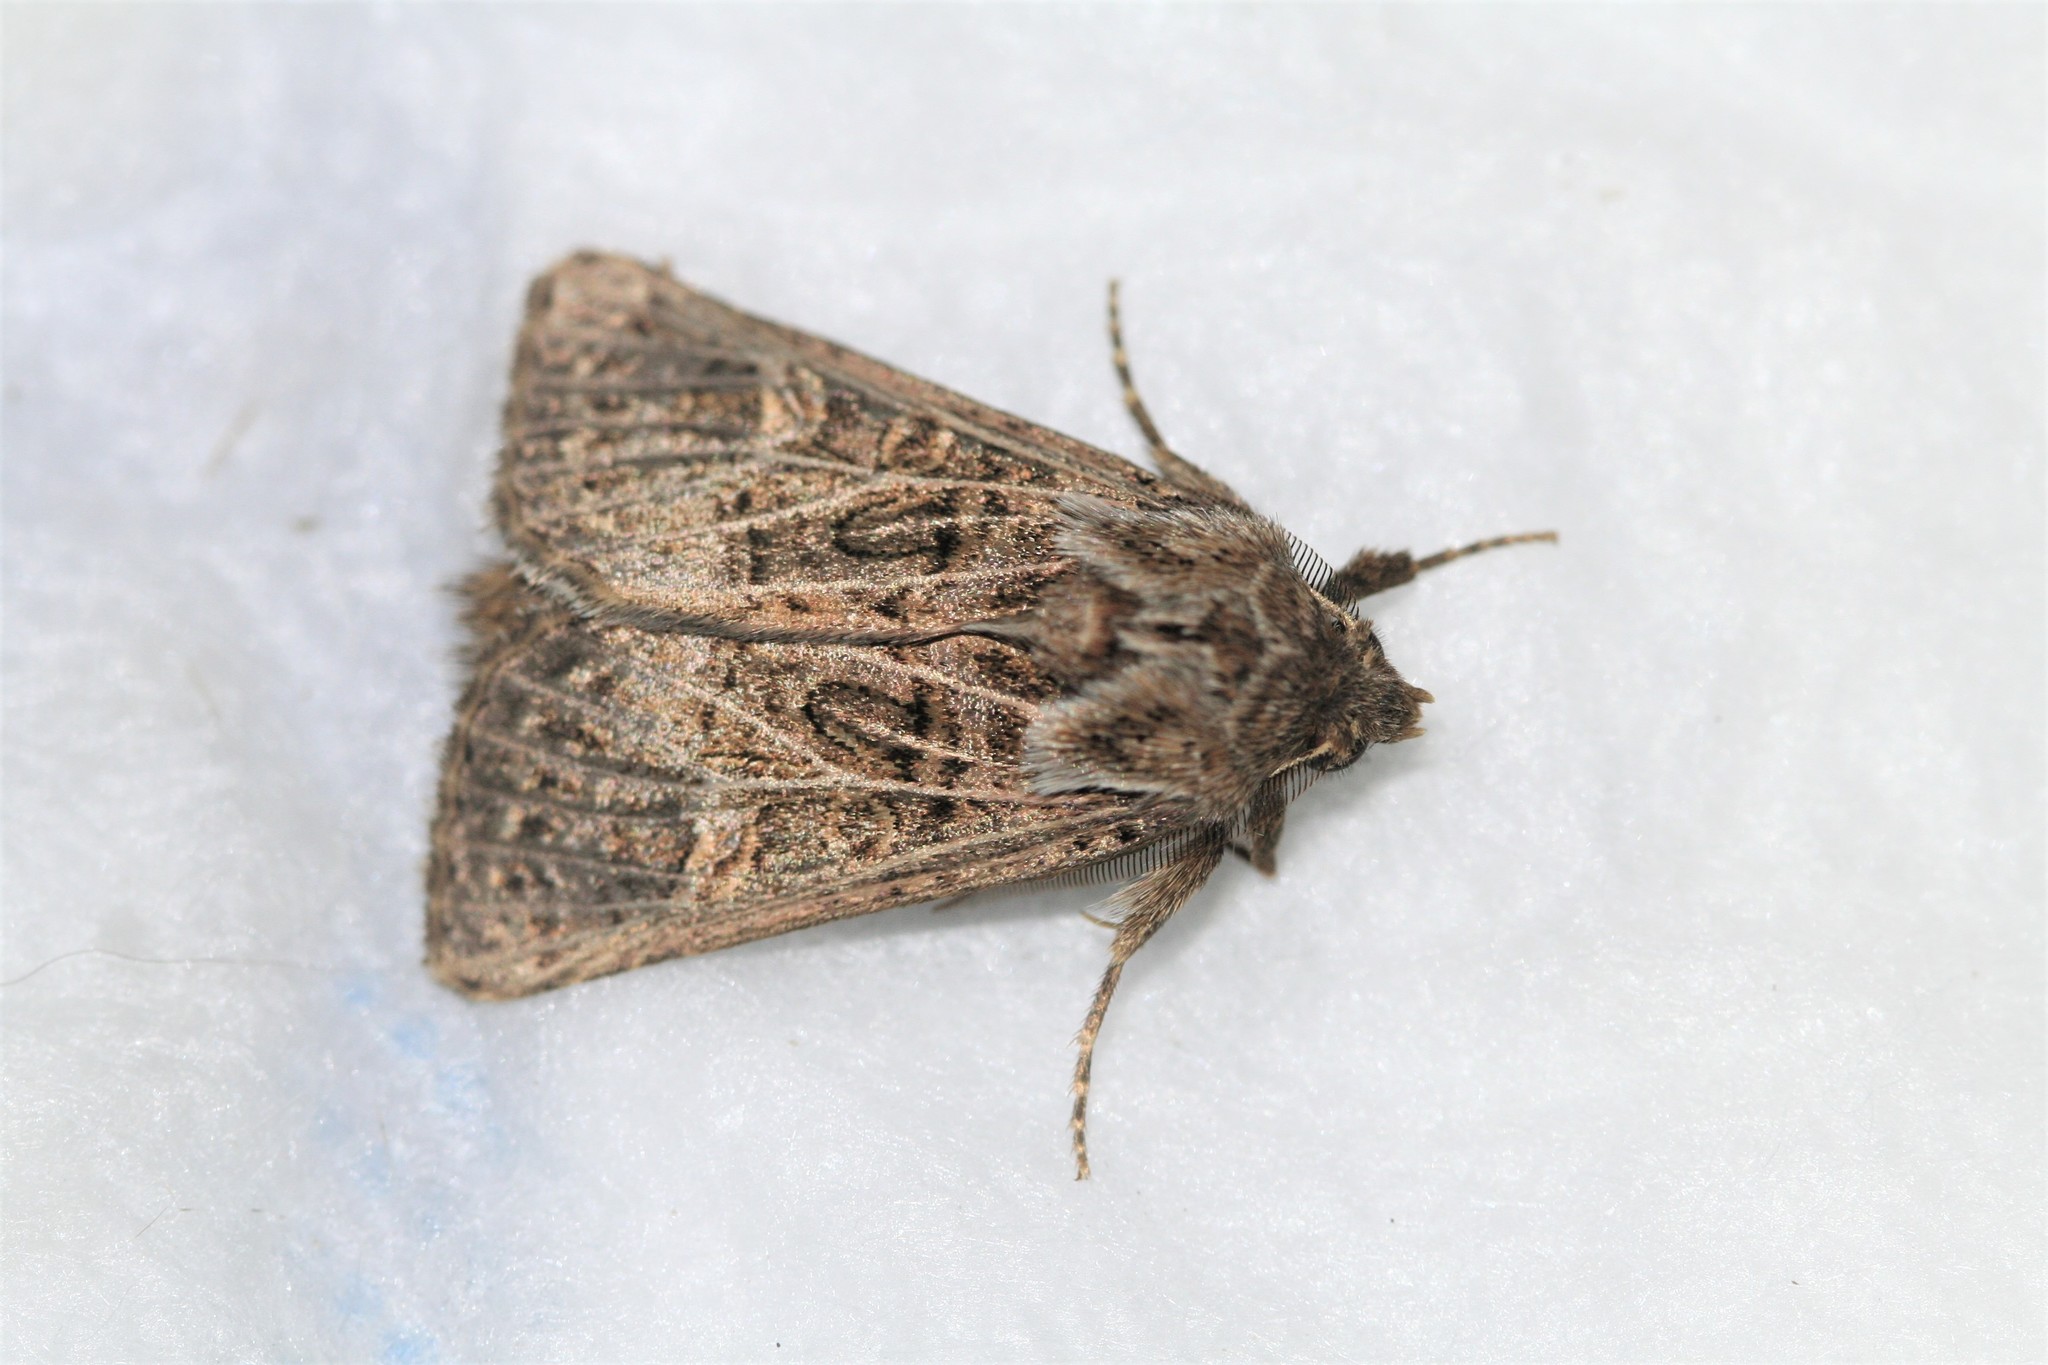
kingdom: Animalia
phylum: Arthropoda
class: Insecta
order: Lepidoptera
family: Noctuidae
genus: Tholera
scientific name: Tholera decimalis
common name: Feathered gothic
